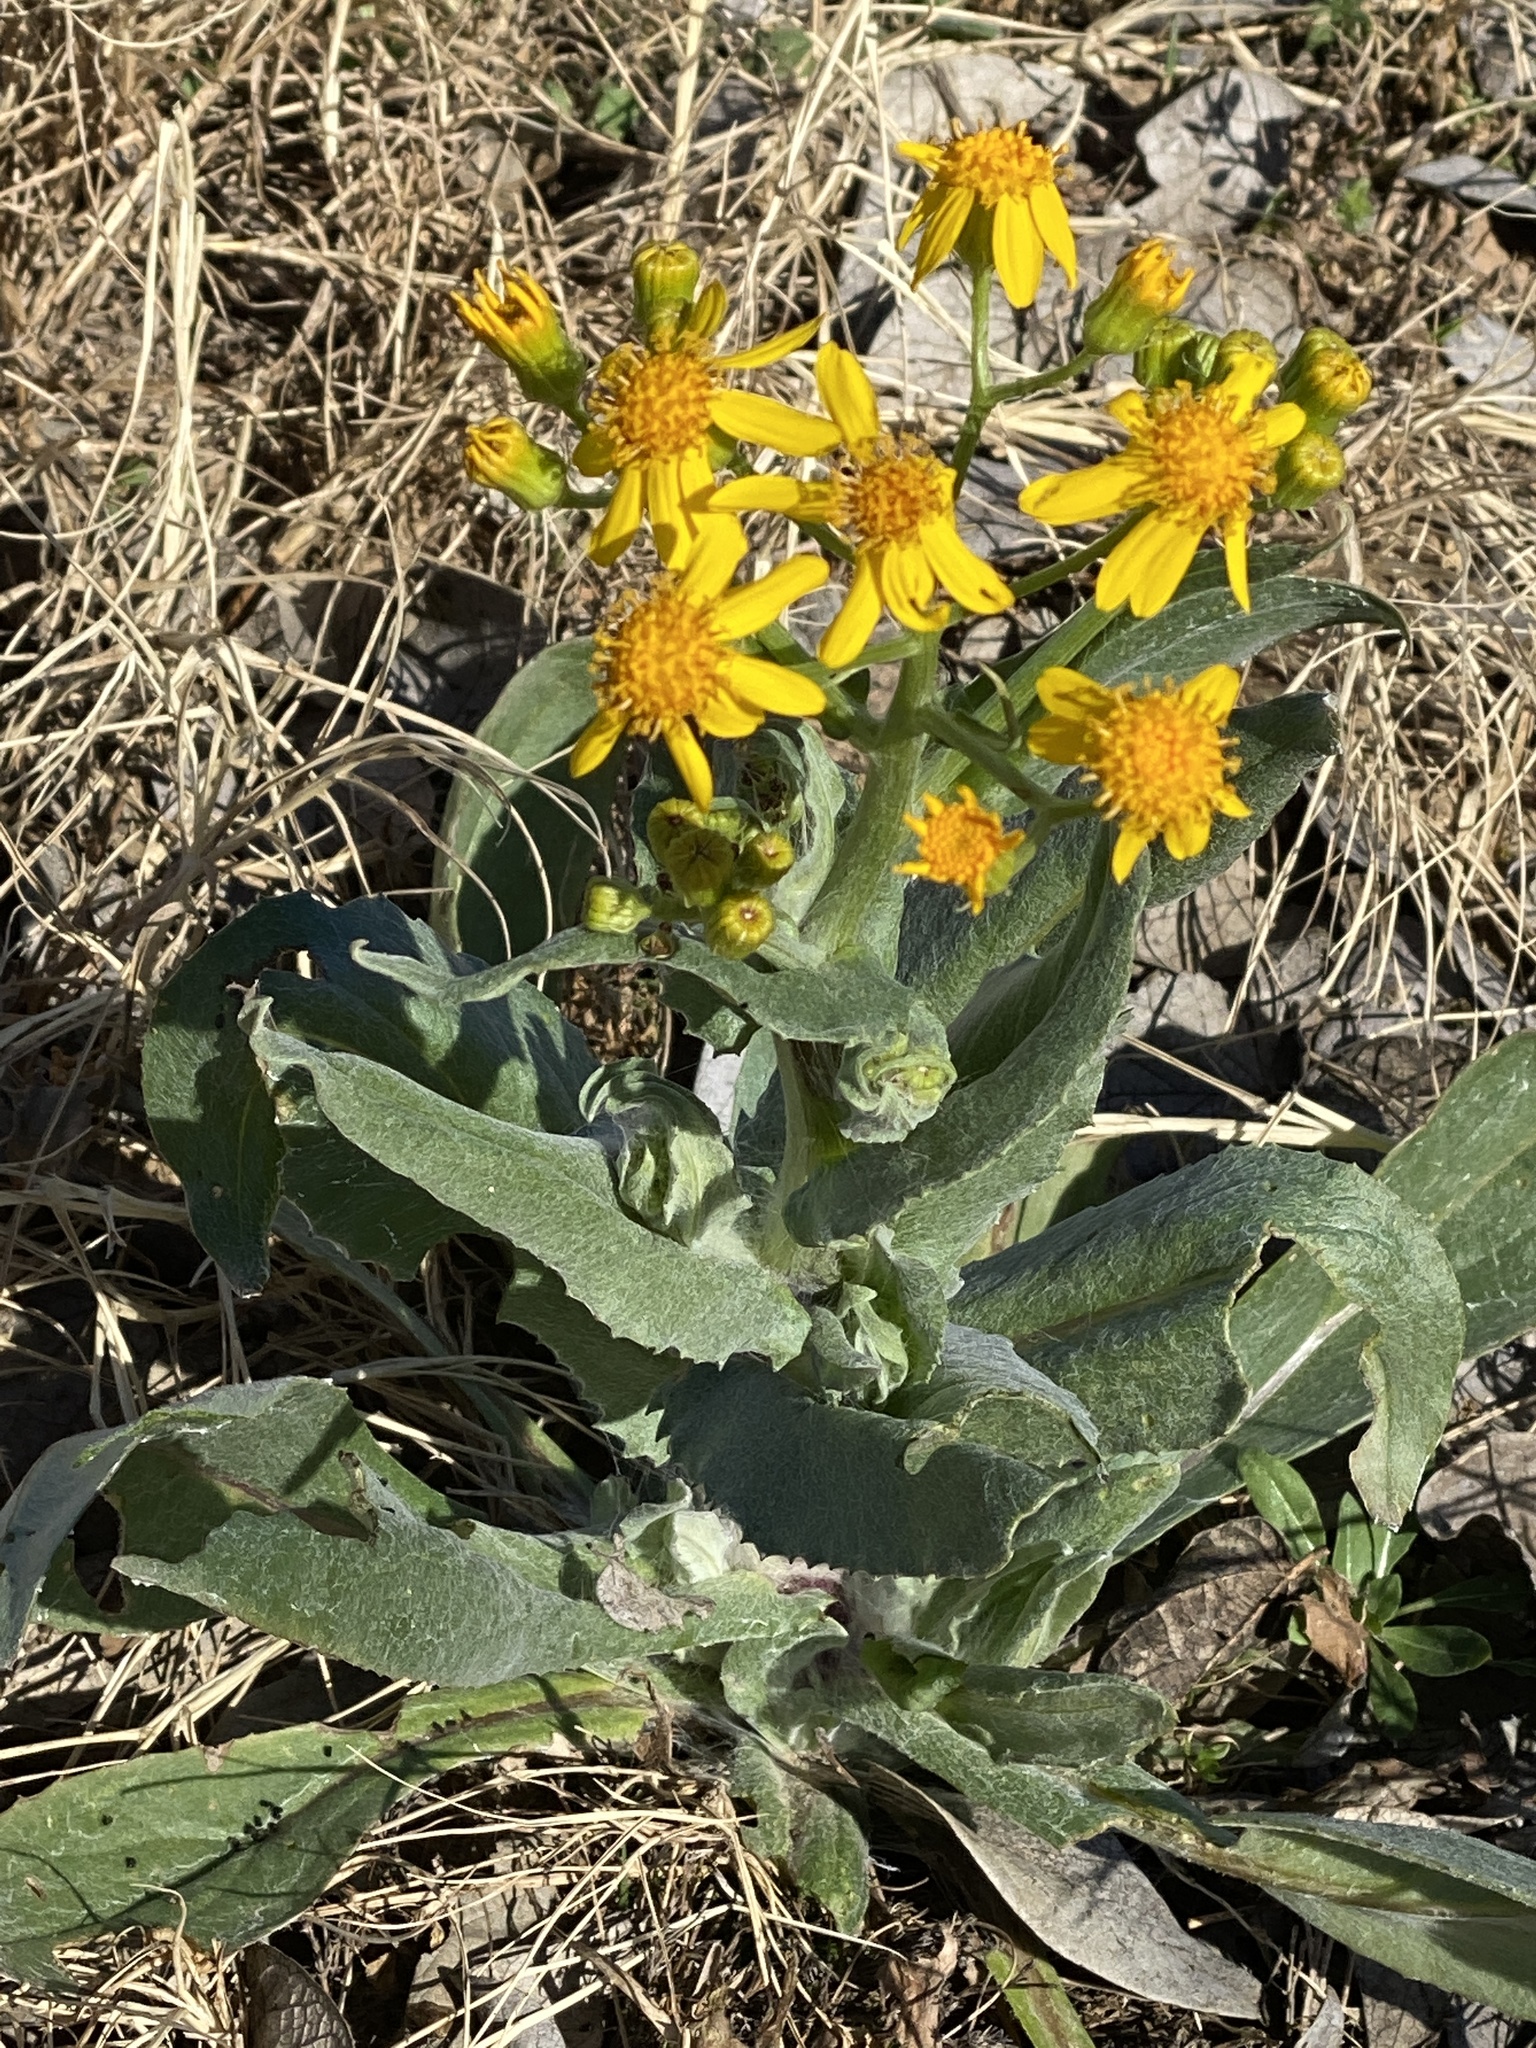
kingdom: Plantae
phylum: Tracheophyta
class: Magnoliopsida
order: Asterales
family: Asteraceae
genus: Senecio
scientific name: Senecio ampullaceus
